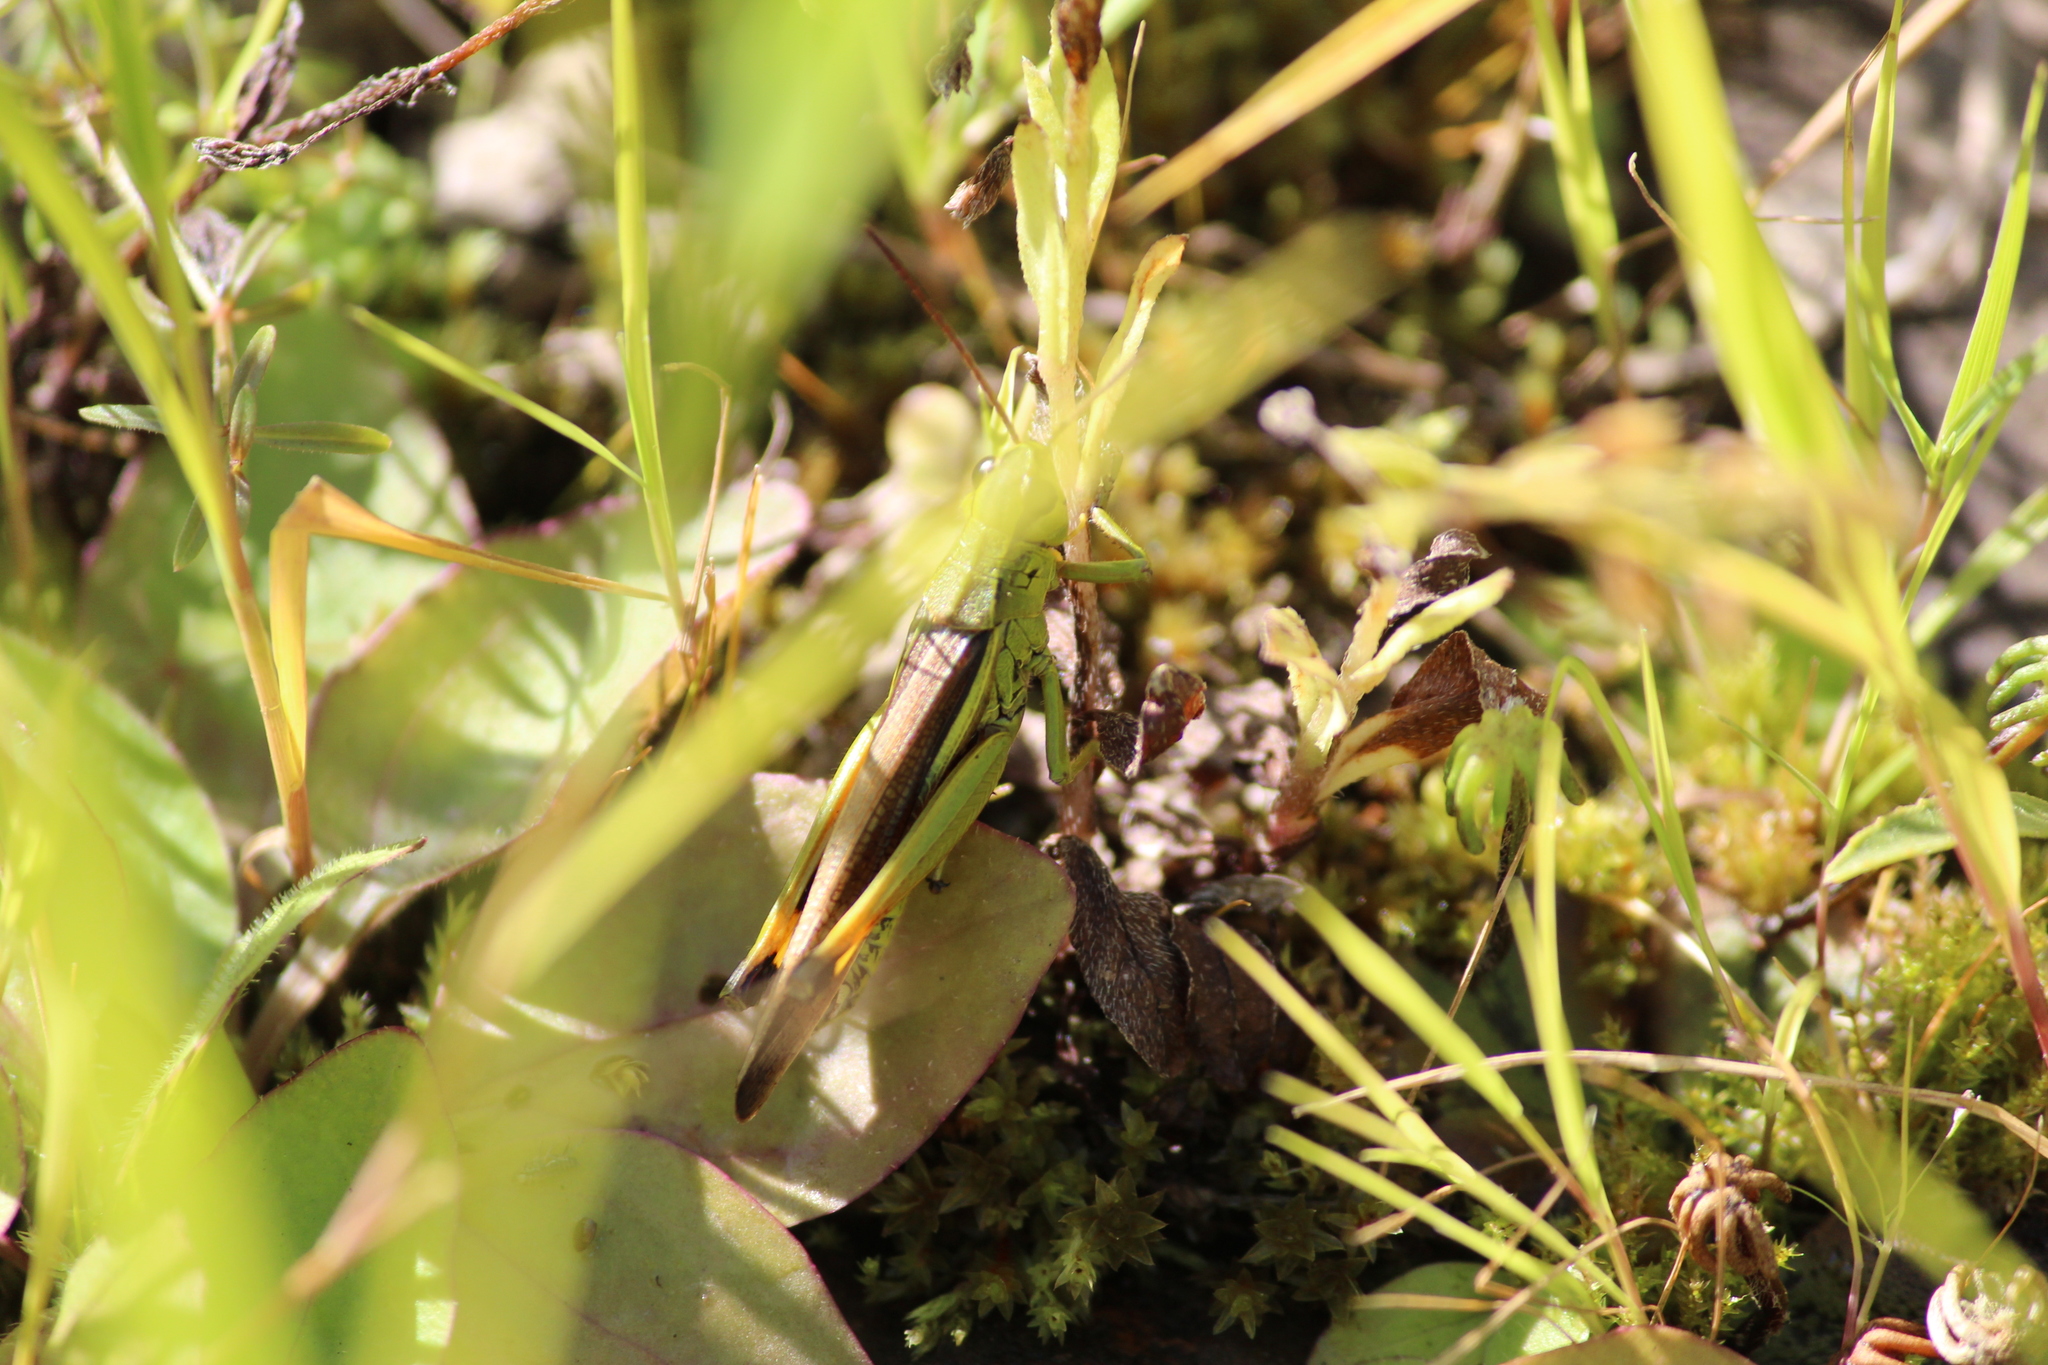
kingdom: Animalia
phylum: Arthropoda
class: Insecta
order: Orthoptera
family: Acrididae
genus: Stethophyma
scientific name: Stethophyma grossum
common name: Large marsh grasshopper
